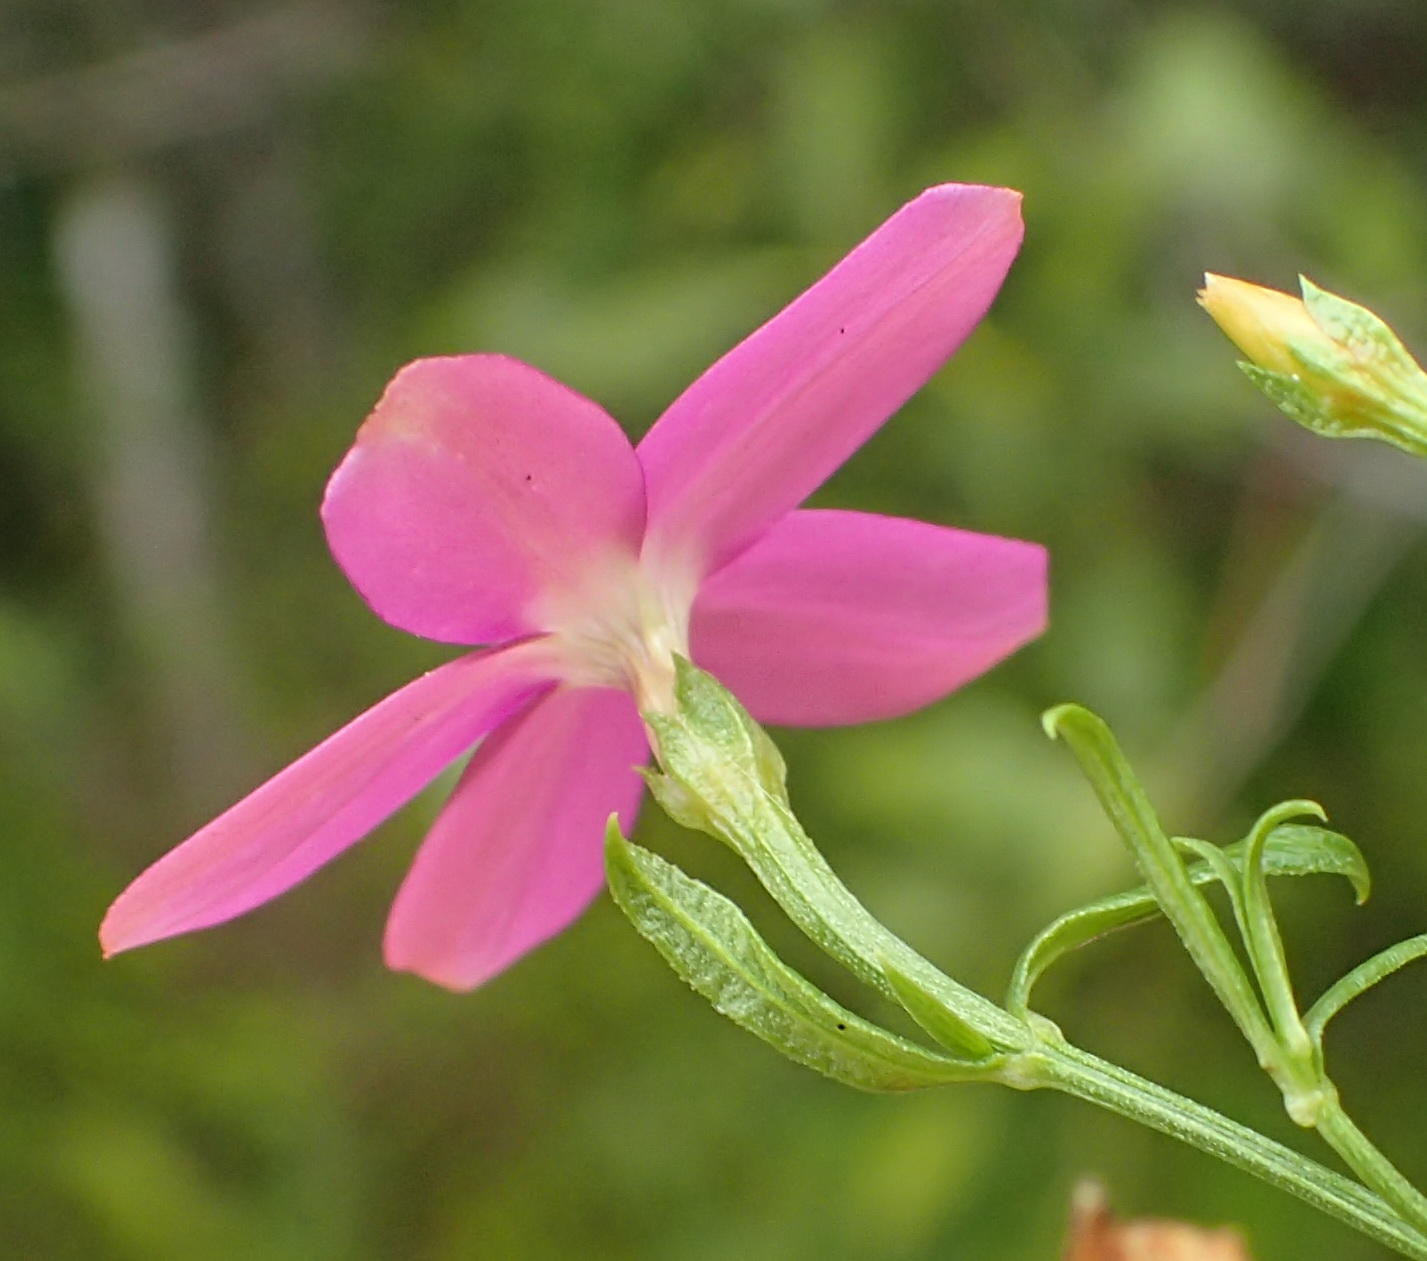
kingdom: Plantae
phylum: Tracheophyta
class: Magnoliopsida
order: Gentianales
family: Gentianaceae
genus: Chironia
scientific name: Chironia baccifera
